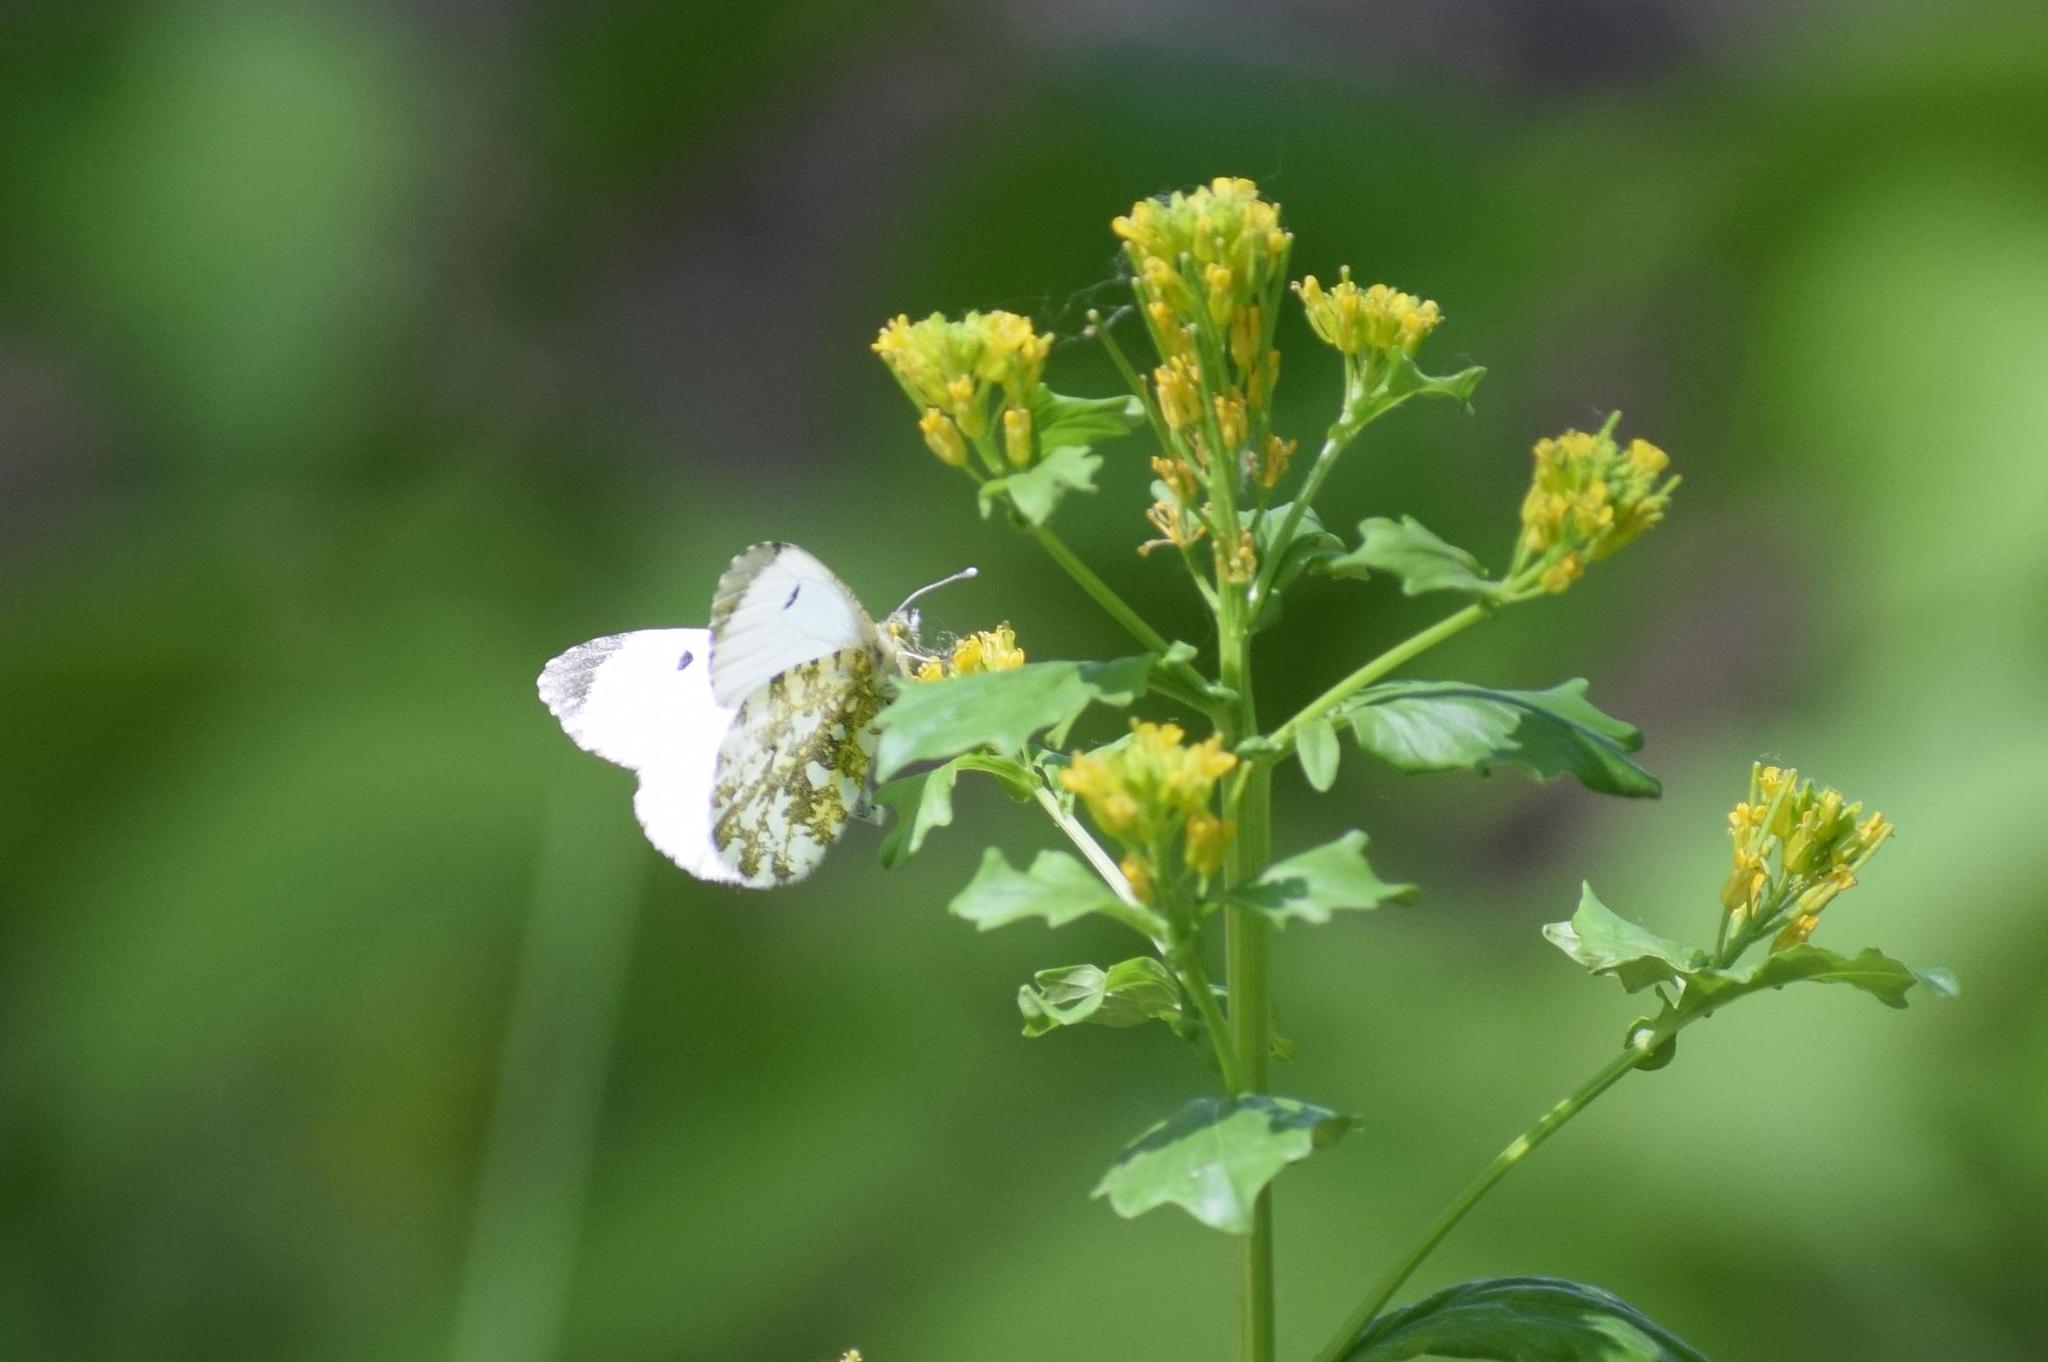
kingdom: Animalia
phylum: Arthropoda
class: Insecta
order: Lepidoptera
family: Pieridae
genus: Anthocharis
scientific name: Anthocharis cardamines
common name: Orange-tip
